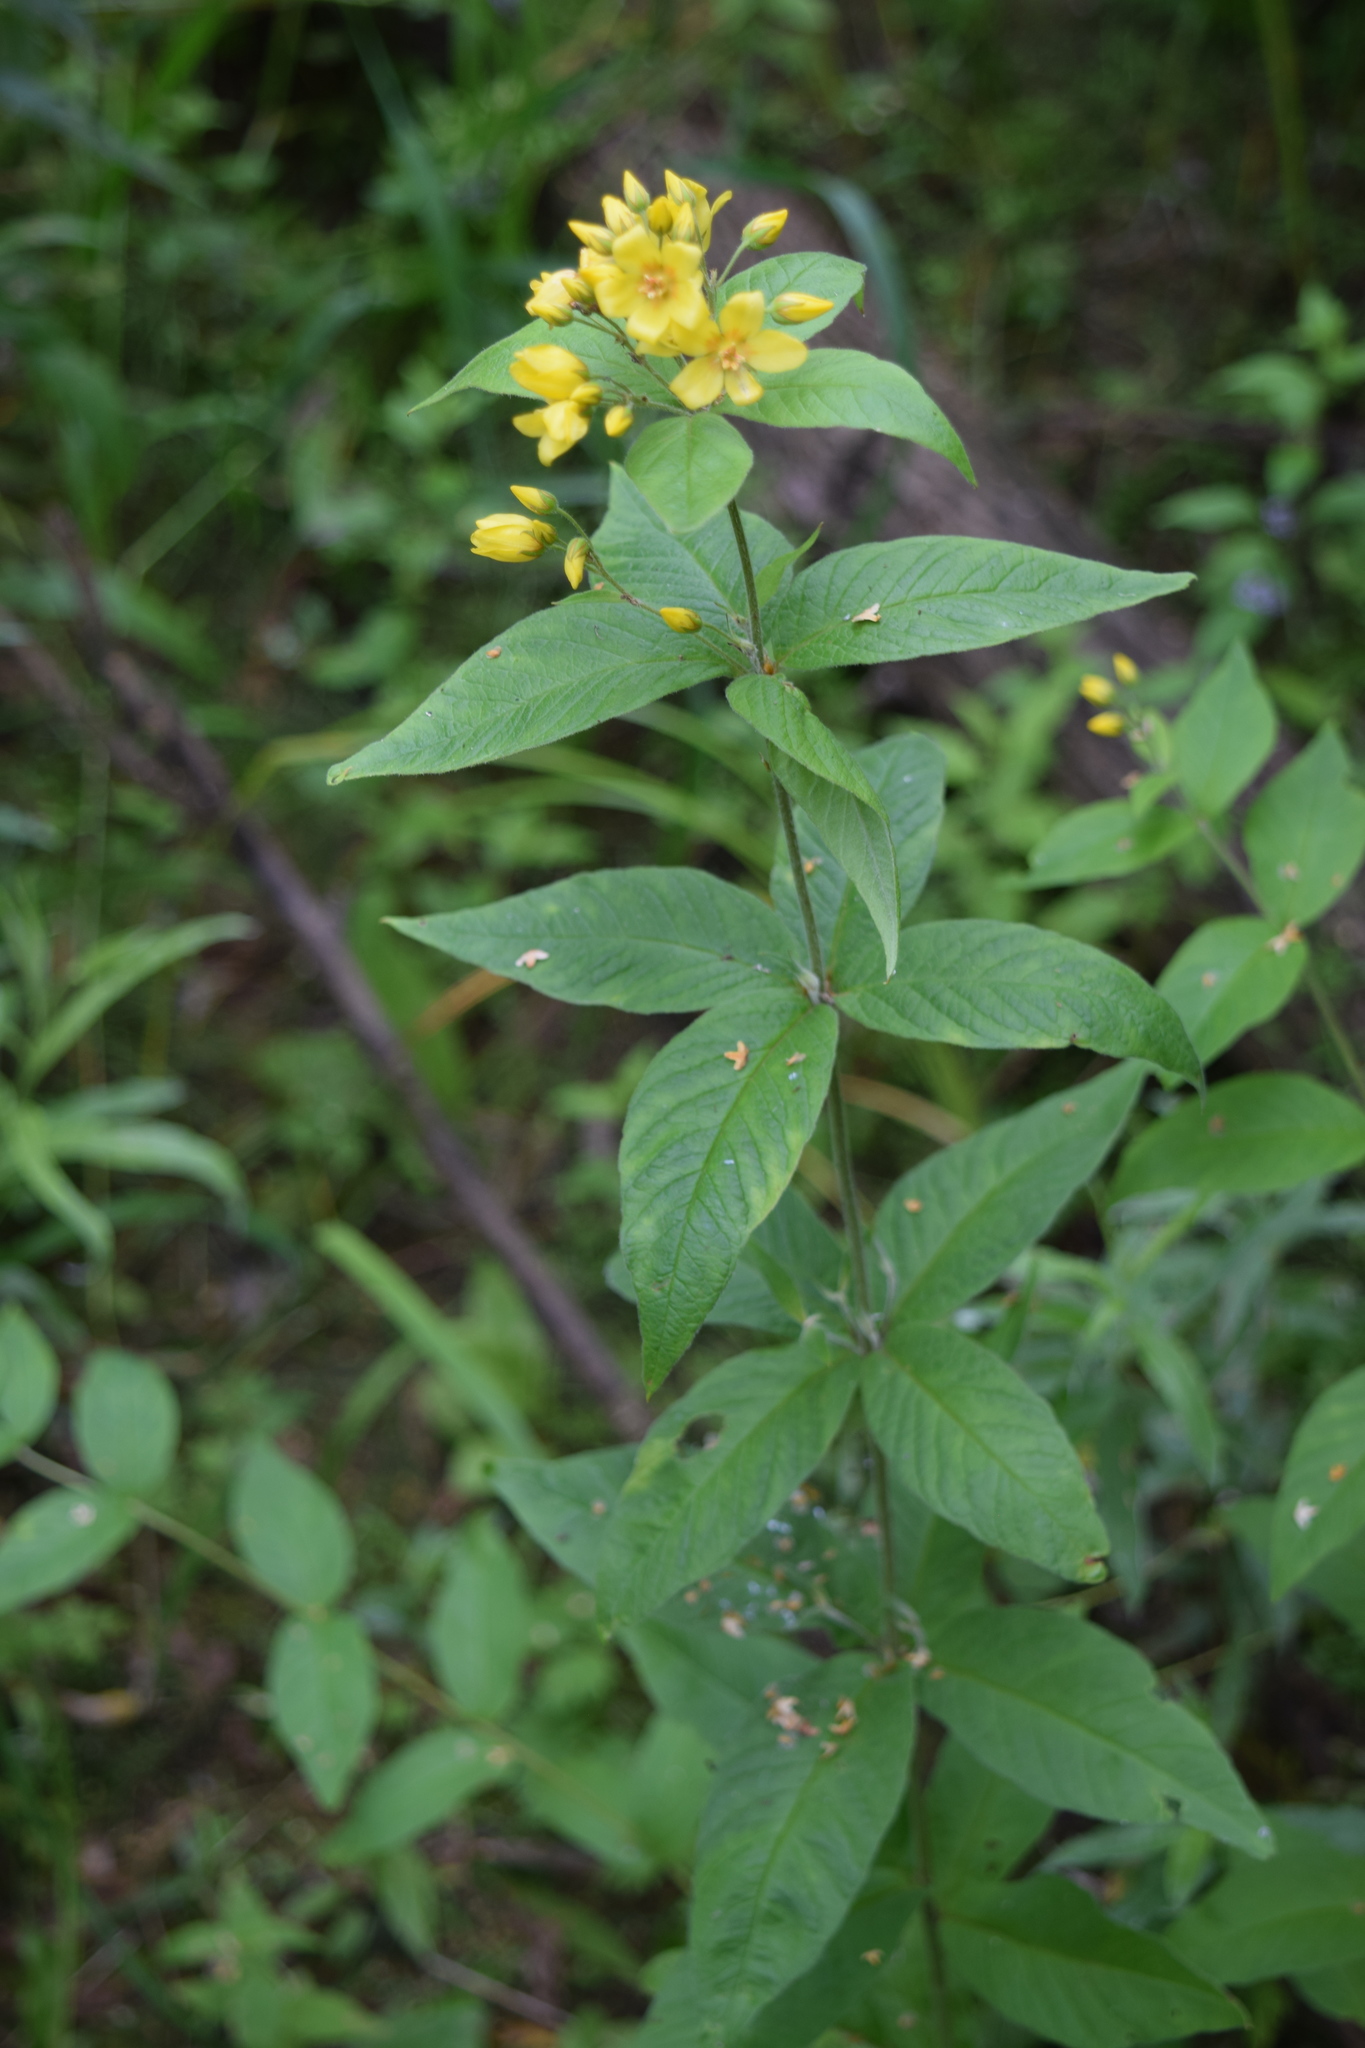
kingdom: Plantae
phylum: Tracheophyta
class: Magnoliopsida
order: Ericales
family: Primulaceae
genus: Lysimachia
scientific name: Lysimachia vulgaris
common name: Yellow loosestrife
